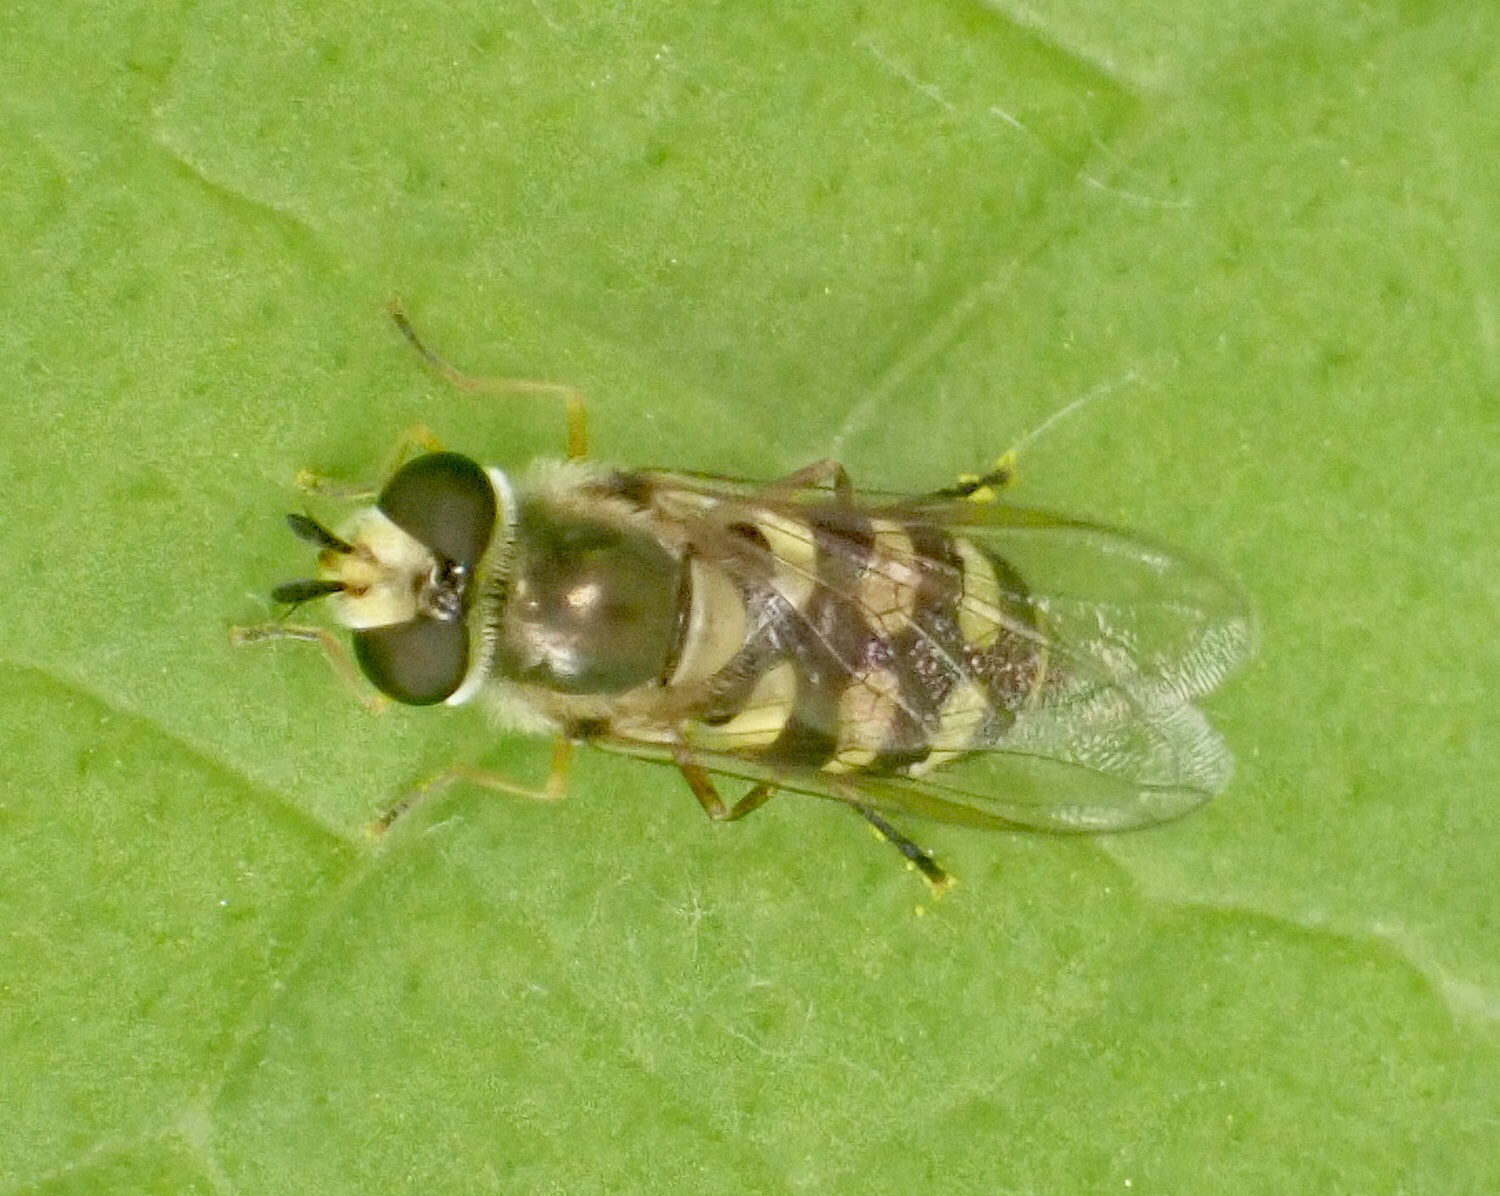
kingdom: Animalia
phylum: Arthropoda
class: Insecta
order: Diptera
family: Syrphidae
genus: Eupeodes
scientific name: Eupeodes corollae
